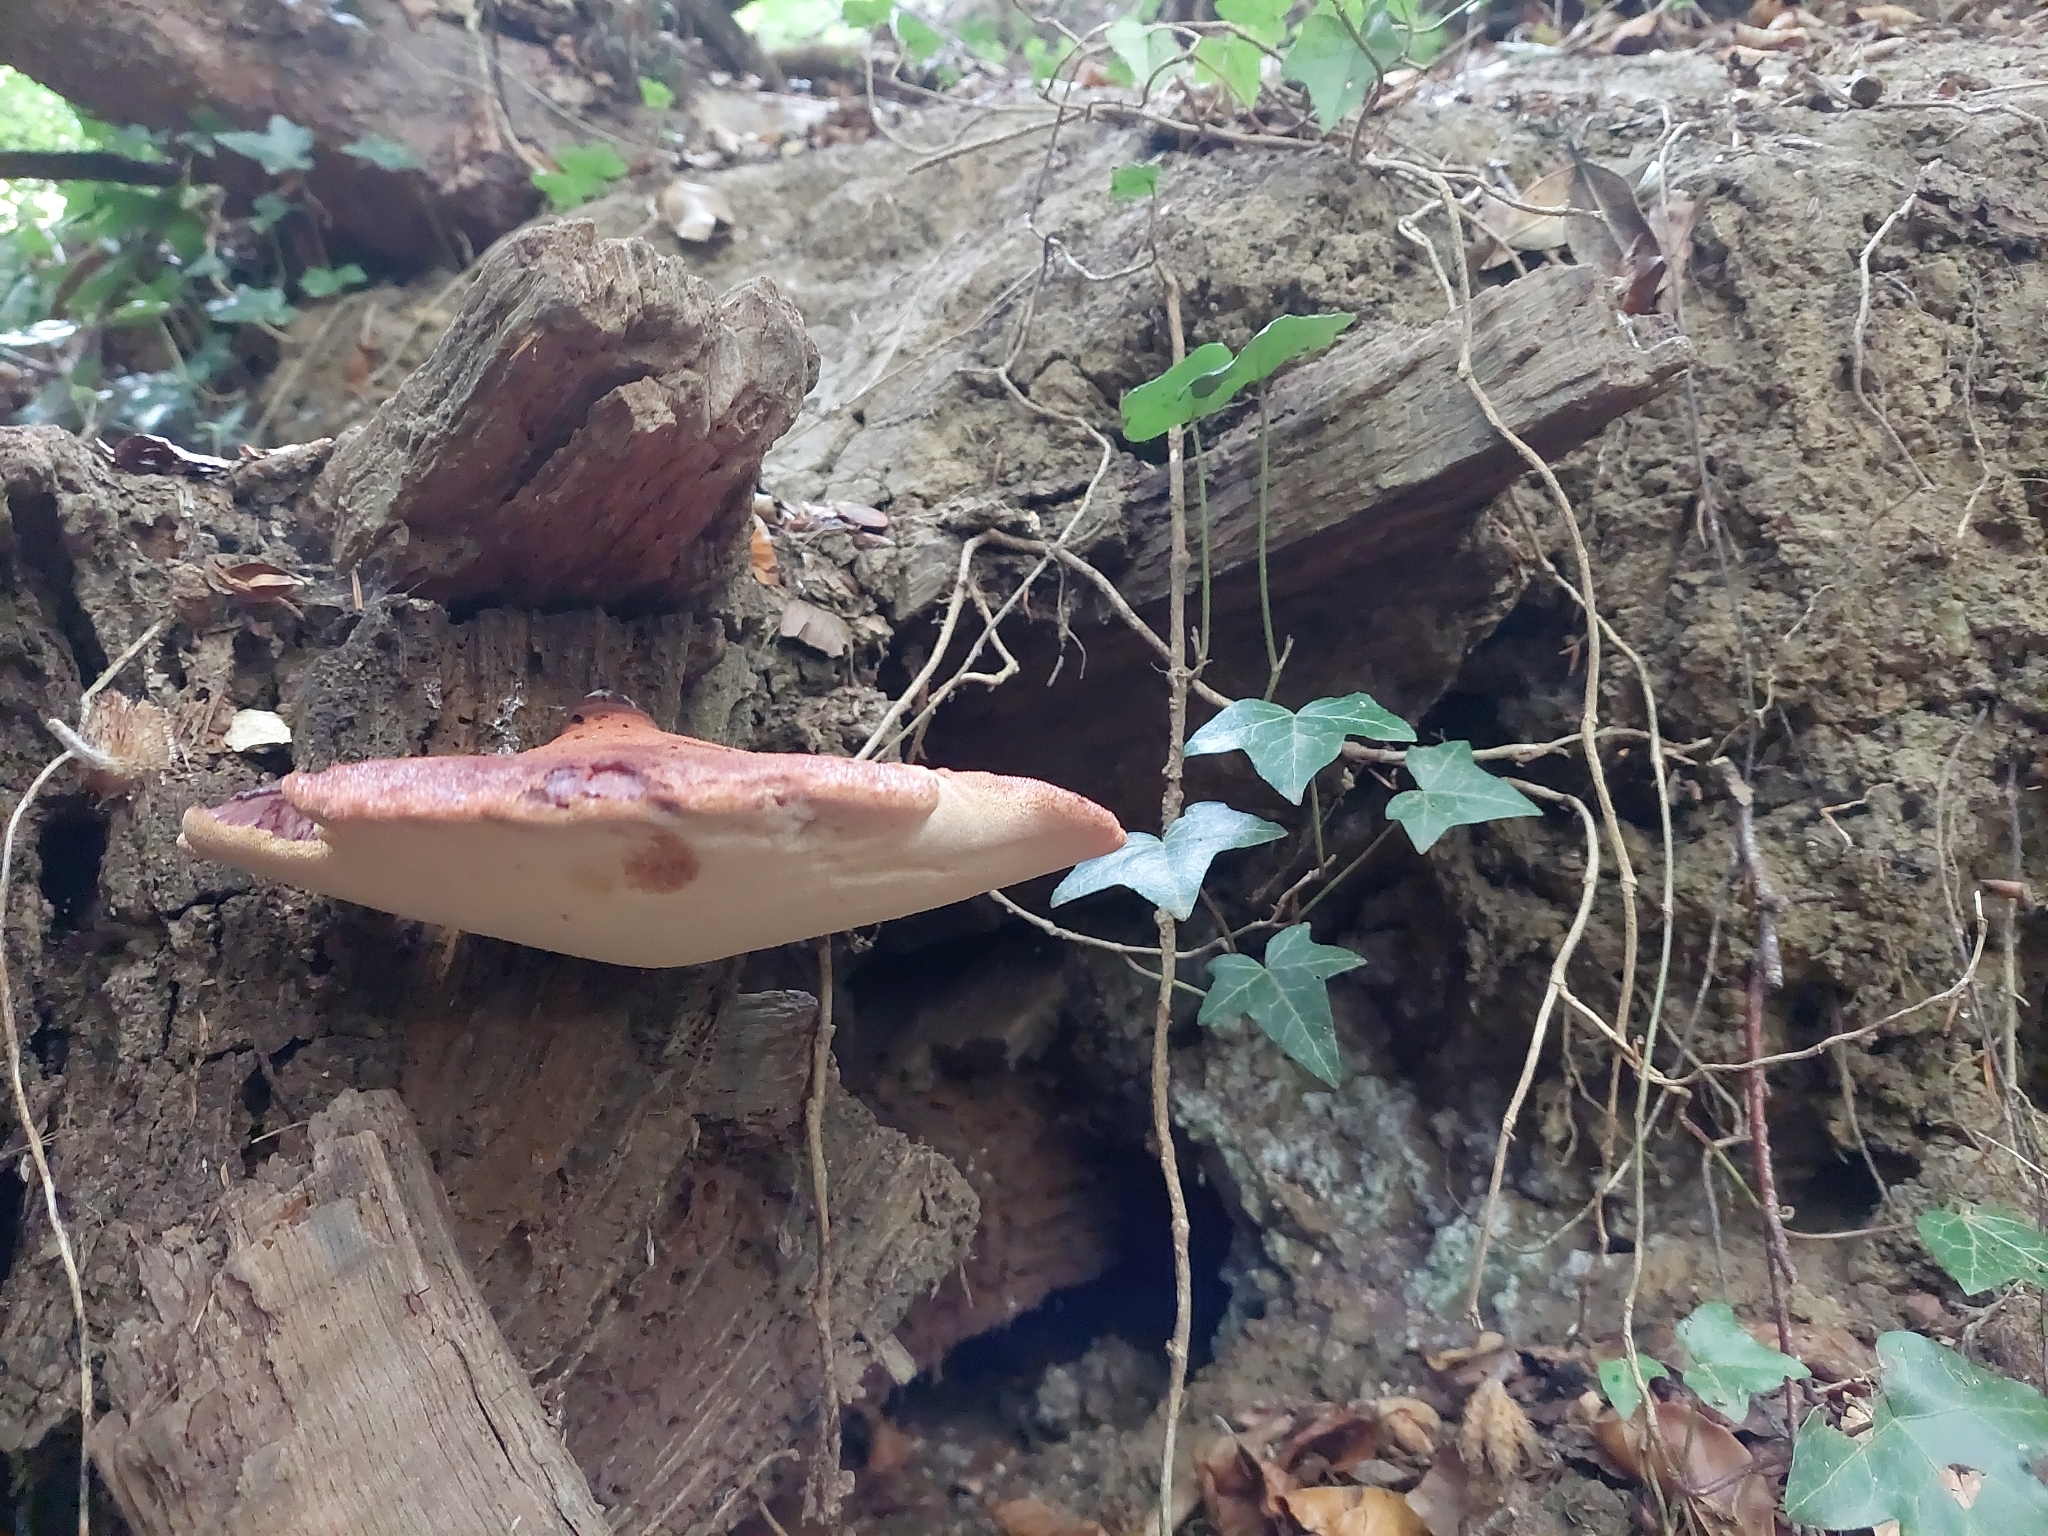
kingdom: Fungi
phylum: Basidiomycota
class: Agaricomycetes
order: Agaricales
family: Fistulinaceae
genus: Fistulina
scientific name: Fistulina hepatica
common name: Beef-steak fungus
